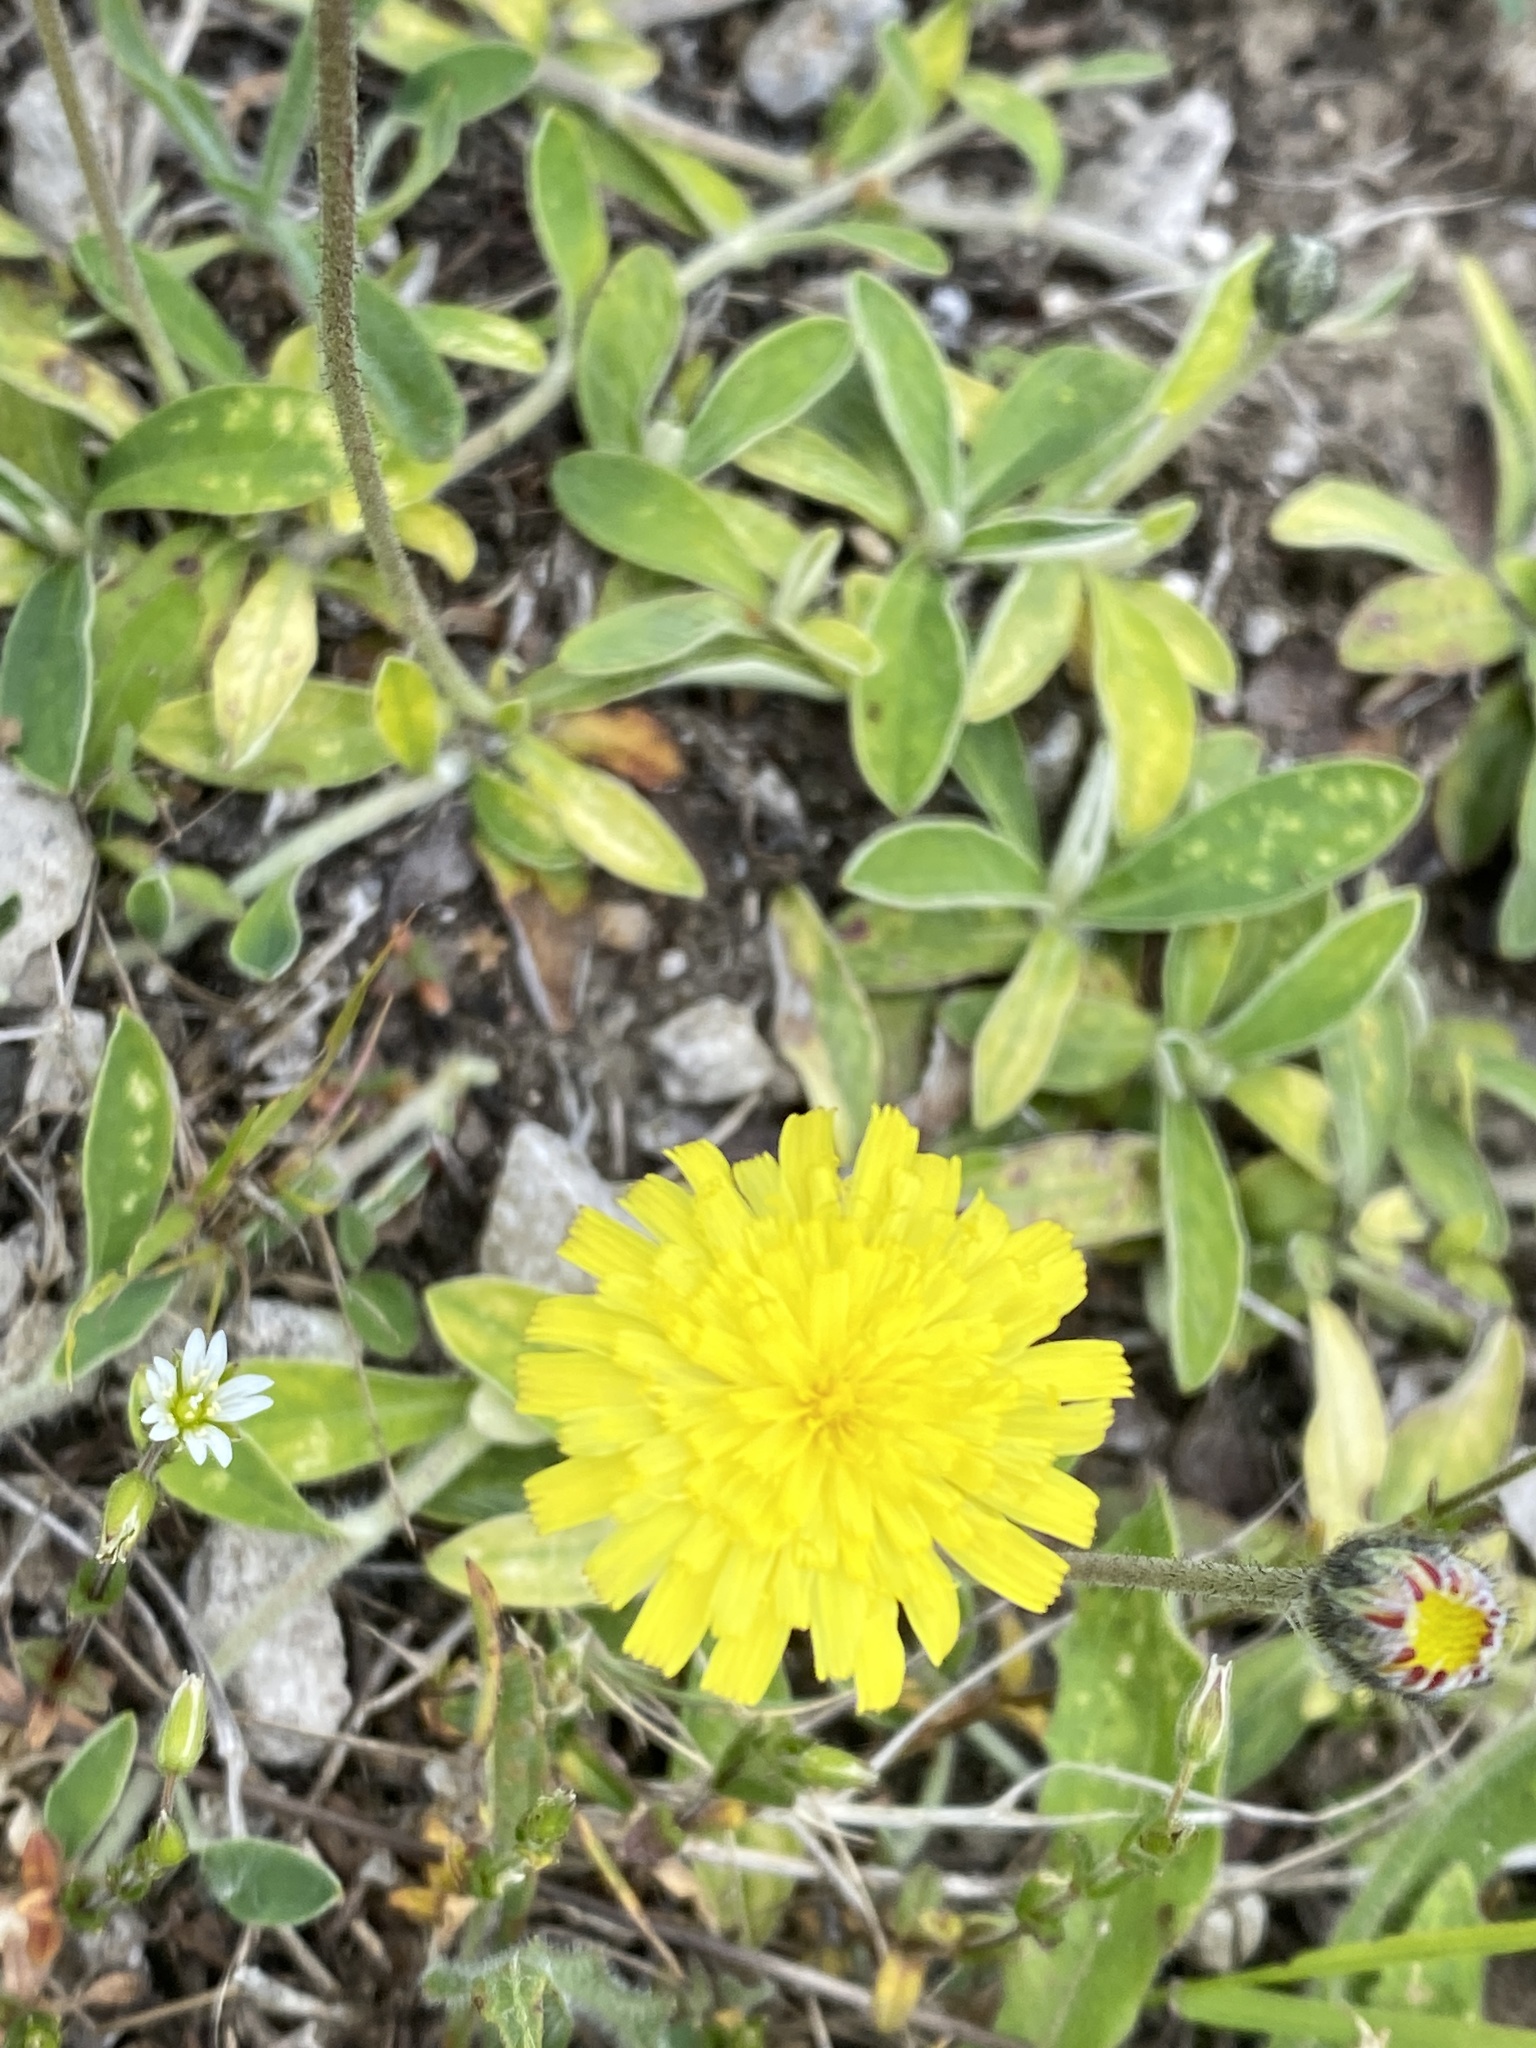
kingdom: Plantae
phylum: Tracheophyta
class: Magnoliopsida
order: Asterales
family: Asteraceae
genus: Pilosella
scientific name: Pilosella officinarum
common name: Mouse-ear hawkweed
